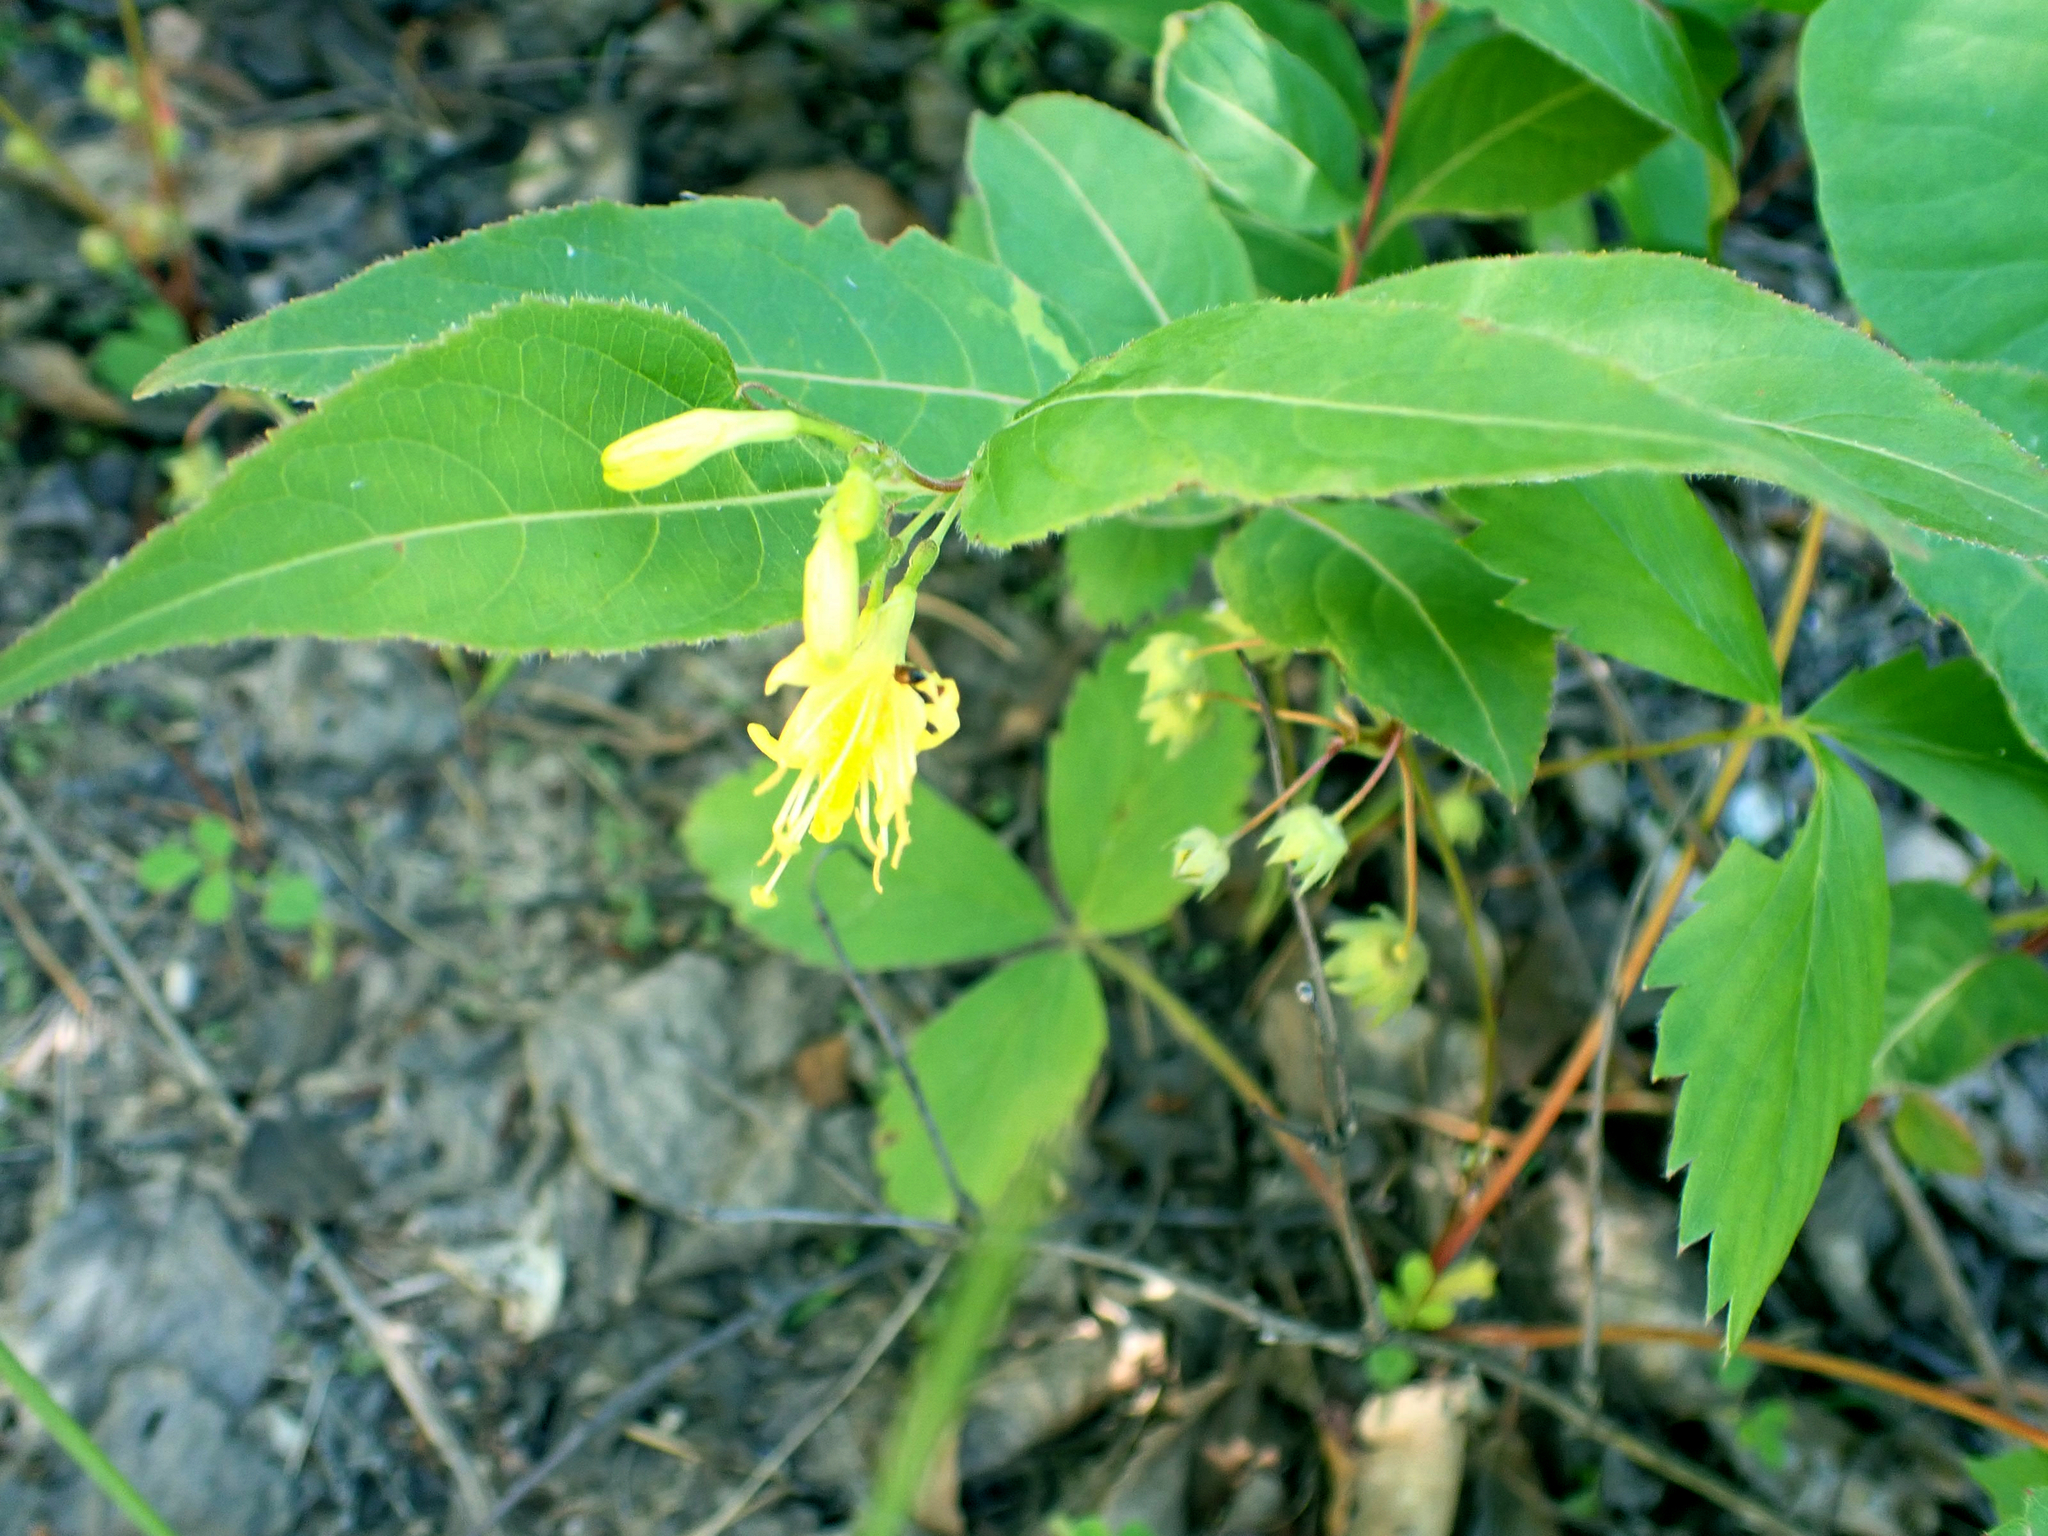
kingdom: Plantae
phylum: Tracheophyta
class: Magnoliopsida
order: Dipsacales
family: Caprifoliaceae
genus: Diervilla
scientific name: Diervilla lonicera
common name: Bush-honeysuckle
